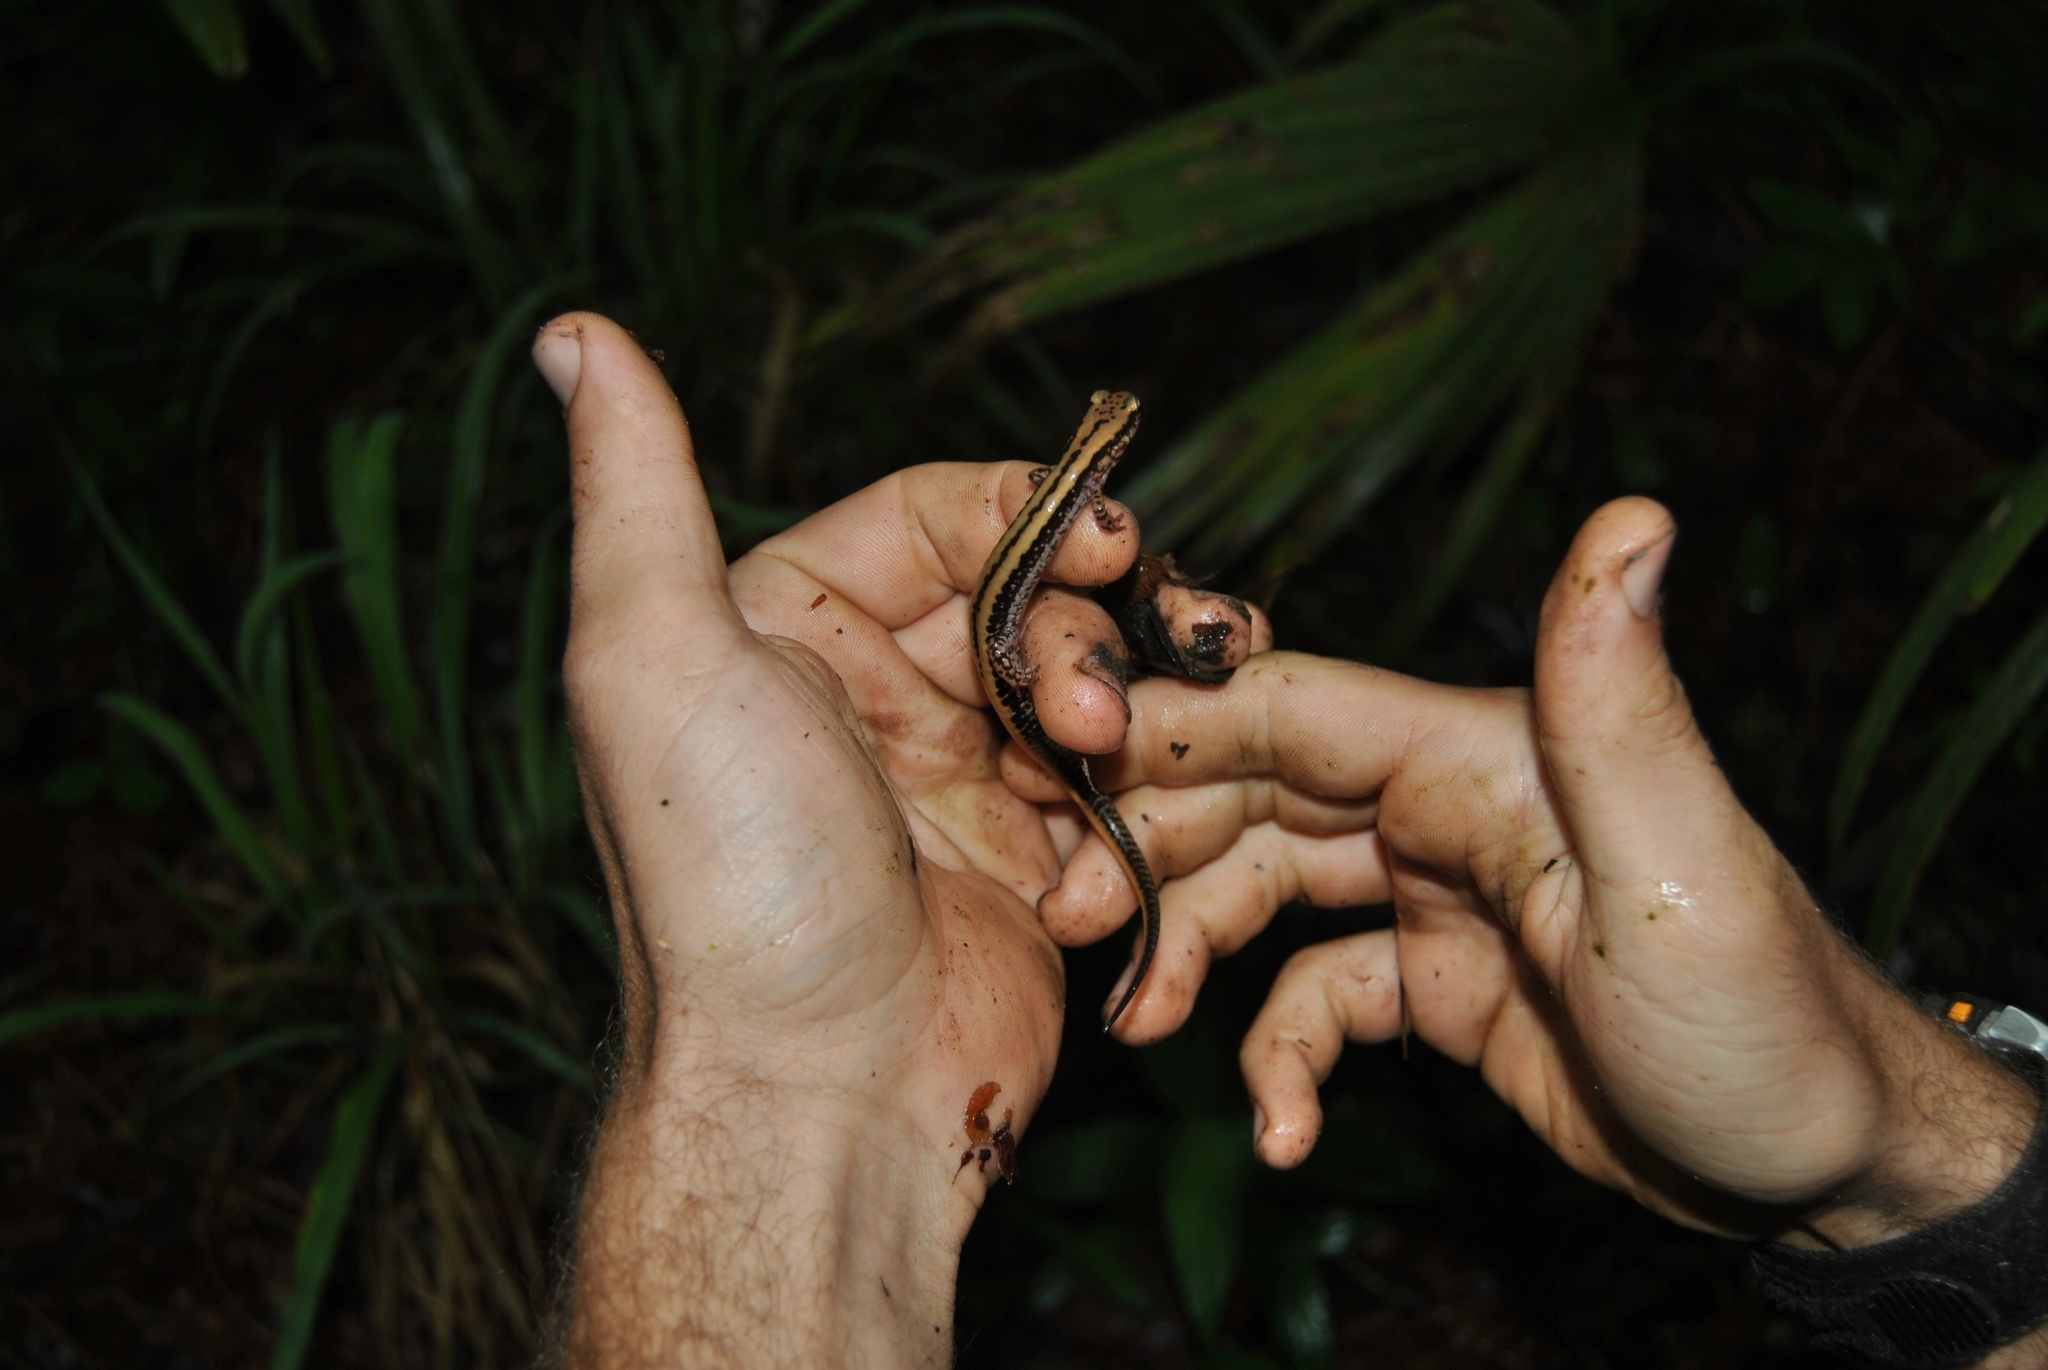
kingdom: Animalia
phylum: Chordata
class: Amphibia
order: Caudata
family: Plethodontidae
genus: Eurycea
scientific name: Eurycea guttolineata
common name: Three-lined salamander
